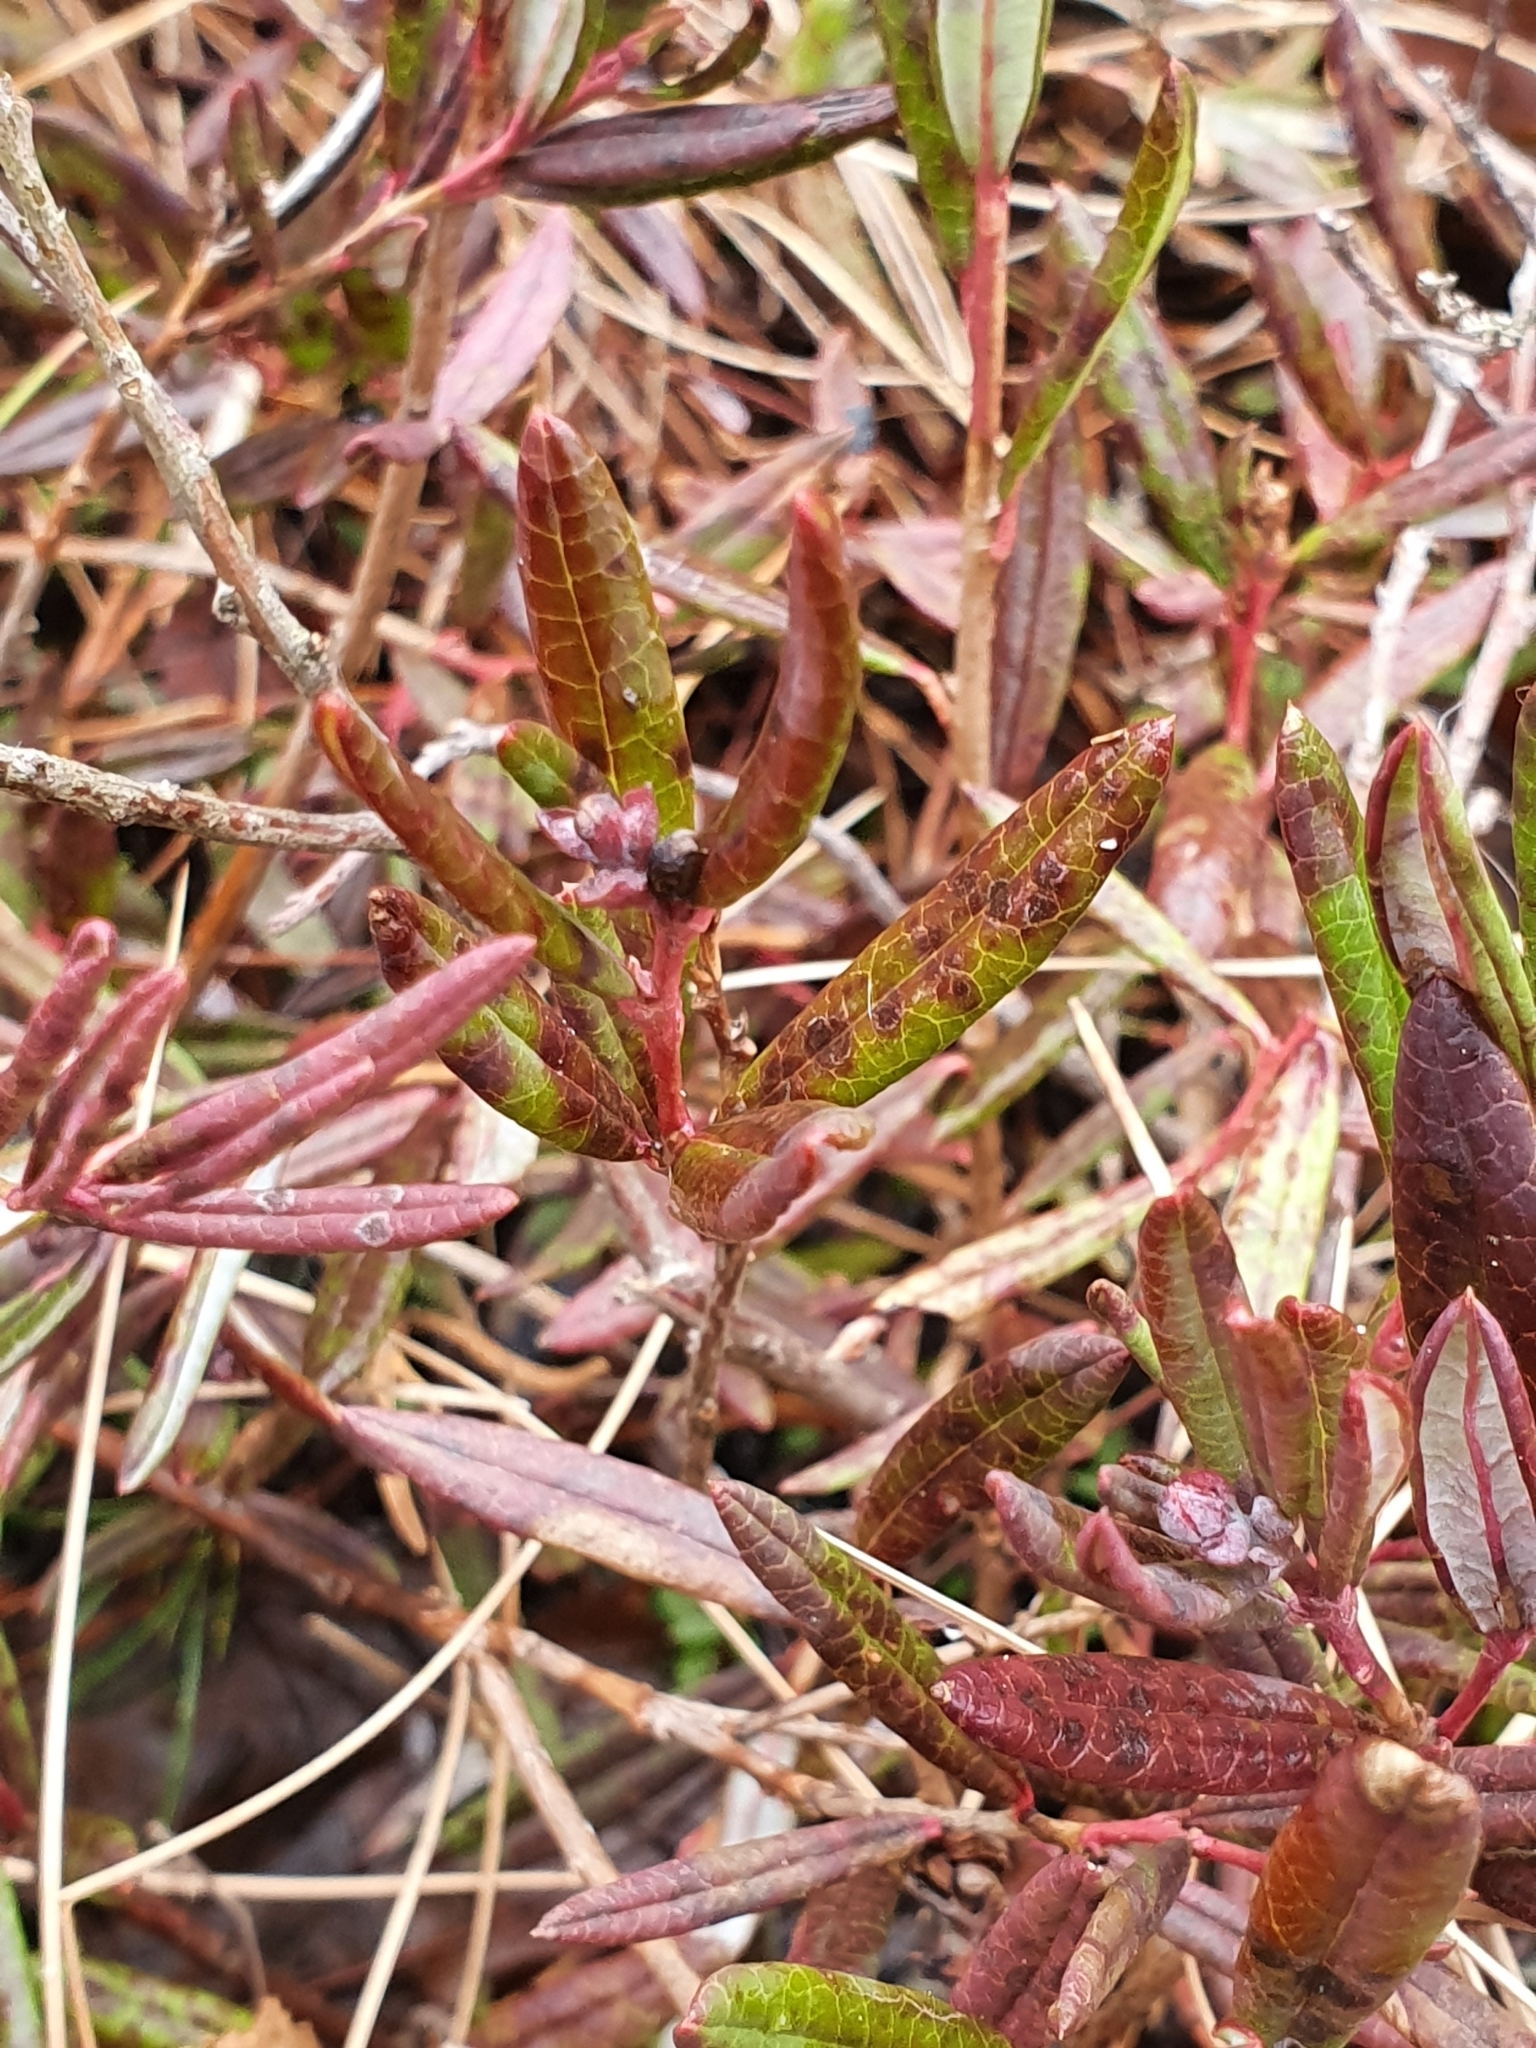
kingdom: Plantae
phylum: Tracheophyta
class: Magnoliopsida
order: Ericales
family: Ericaceae
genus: Andromeda
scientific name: Andromeda polifolia
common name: Bog-rosemary
